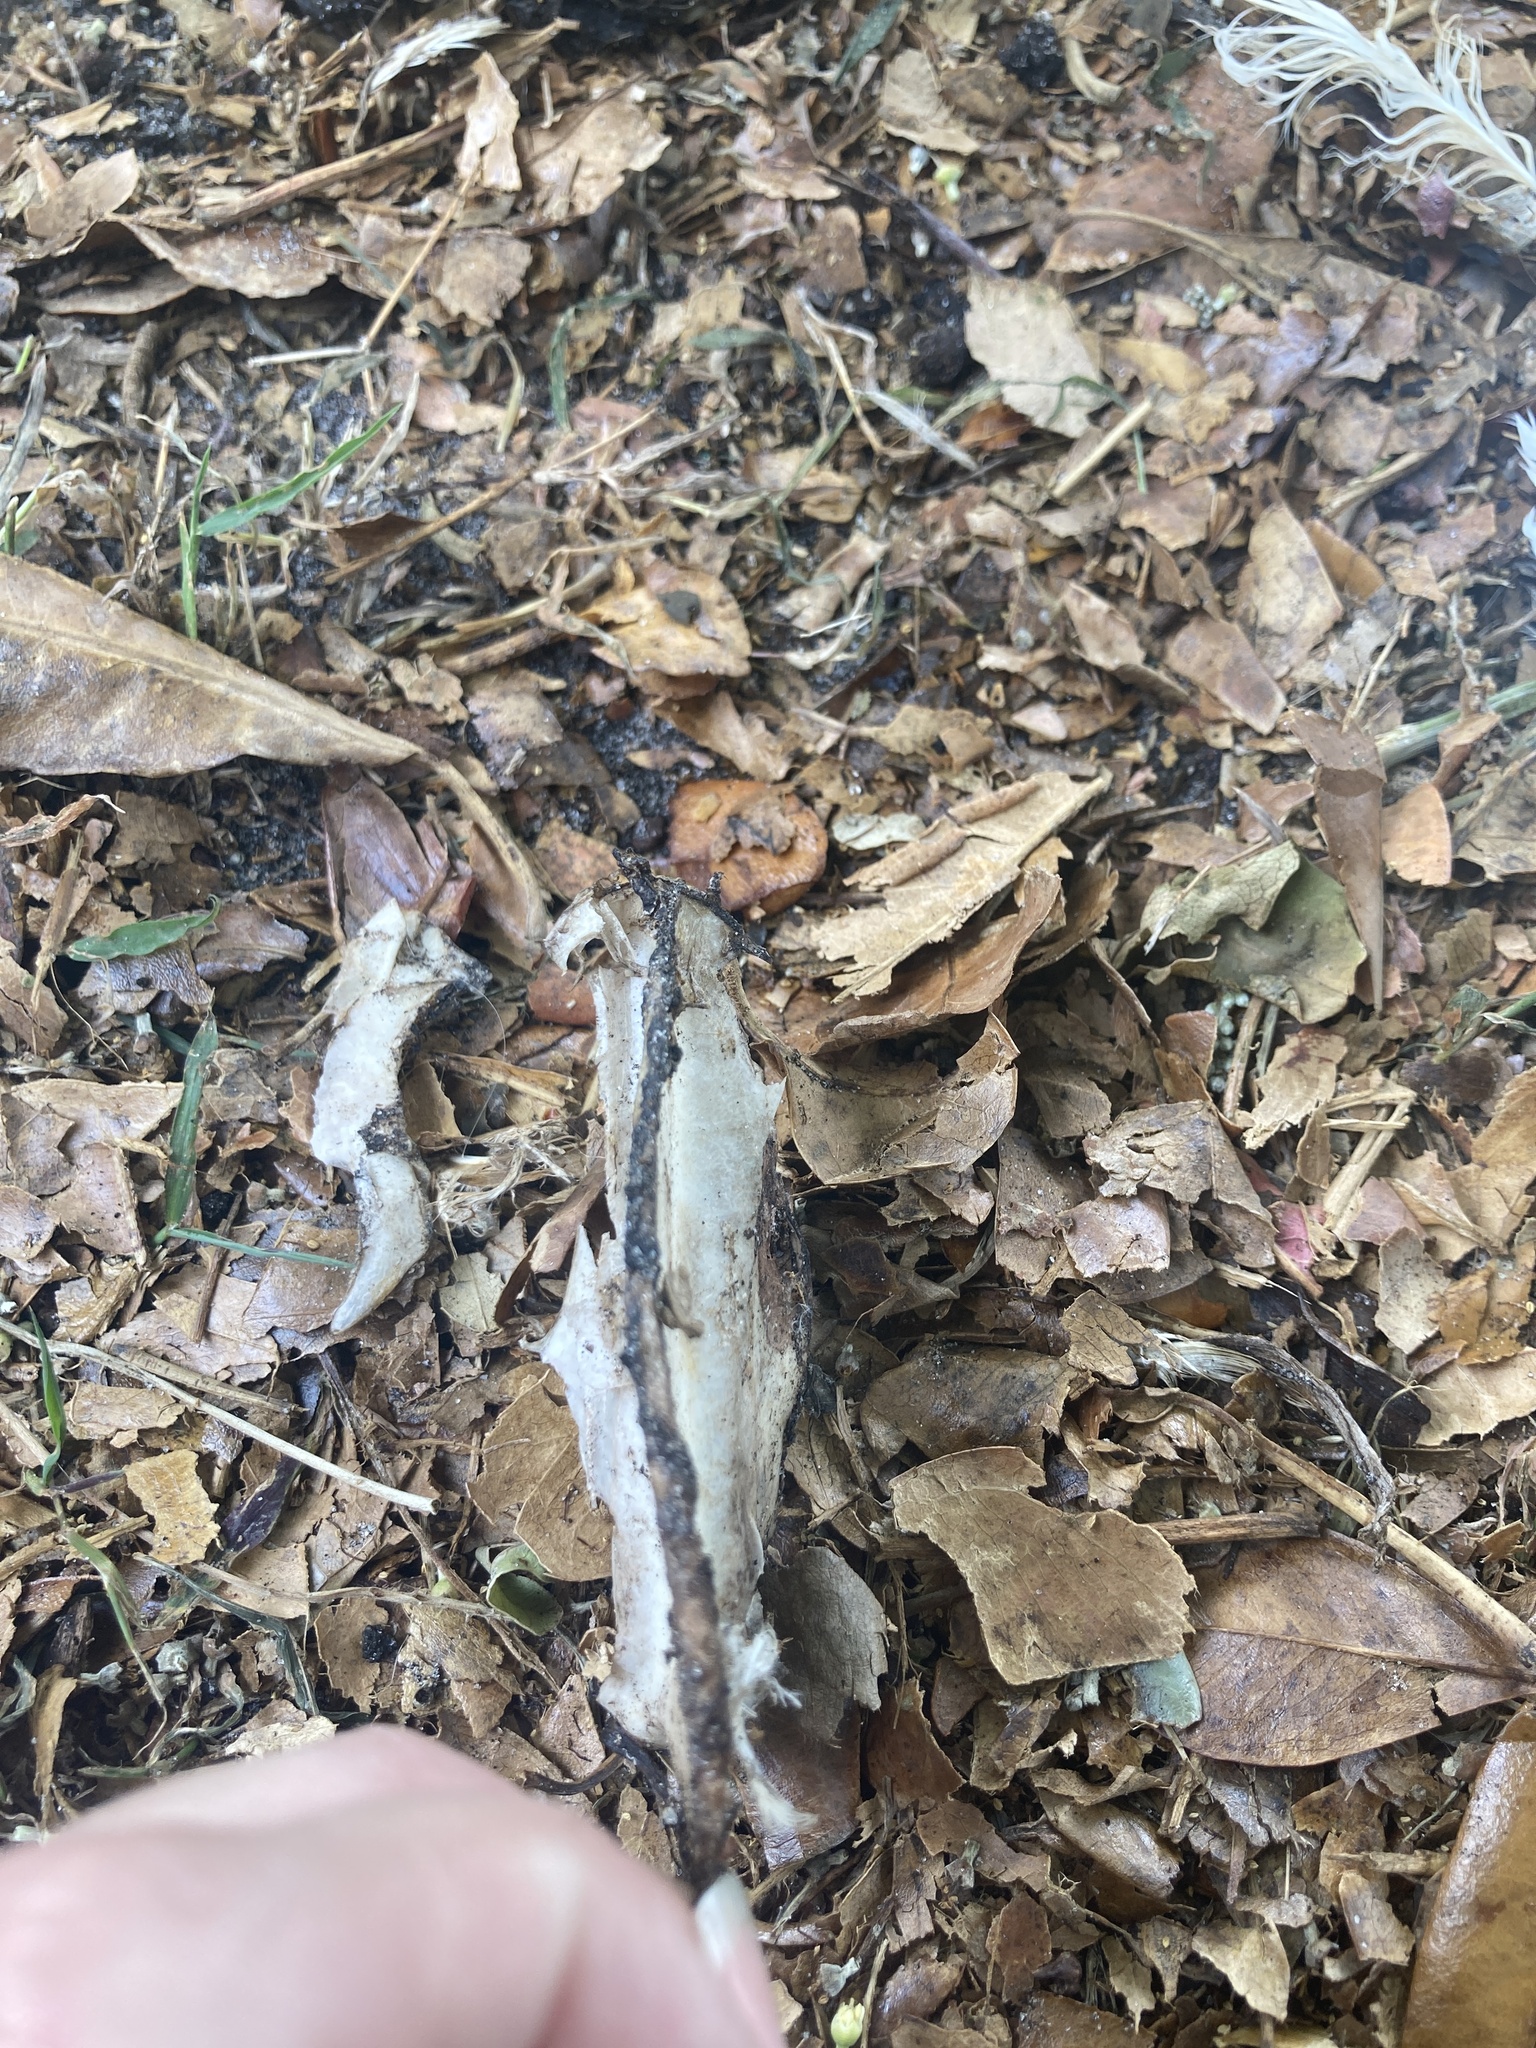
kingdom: Animalia
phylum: Chordata
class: Aves
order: Columbiformes
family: Columbidae
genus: Columba
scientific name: Columba livia
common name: Rock pigeon
